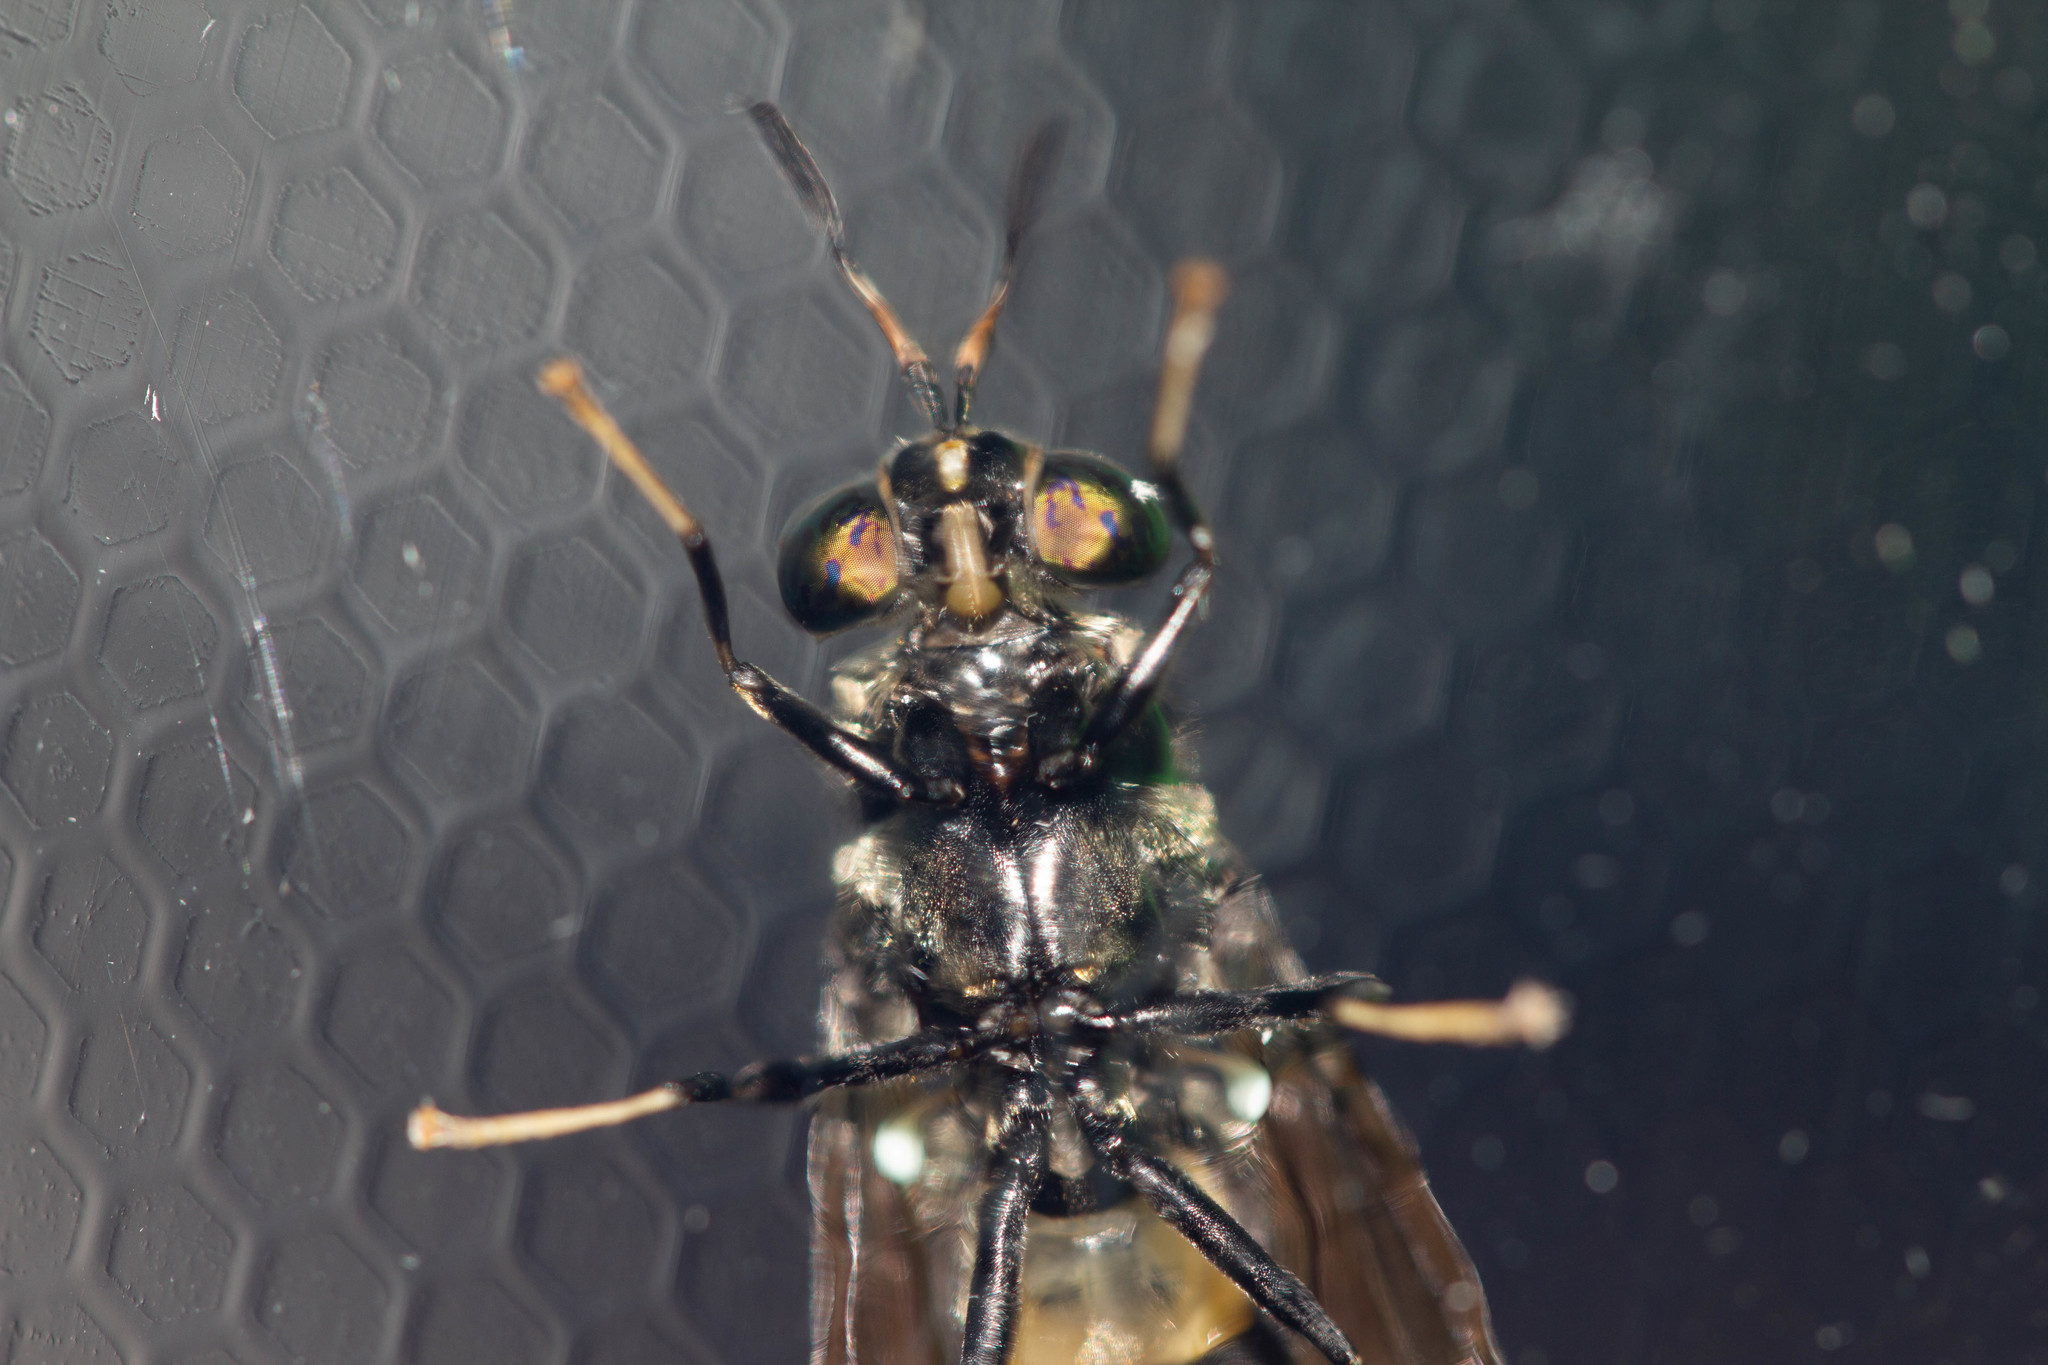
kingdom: Animalia
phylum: Arthropoda
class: Insecta
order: Diptera
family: Stratiomyidae
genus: Hermetia
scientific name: Hermetia illucens
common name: Black soldier fly
